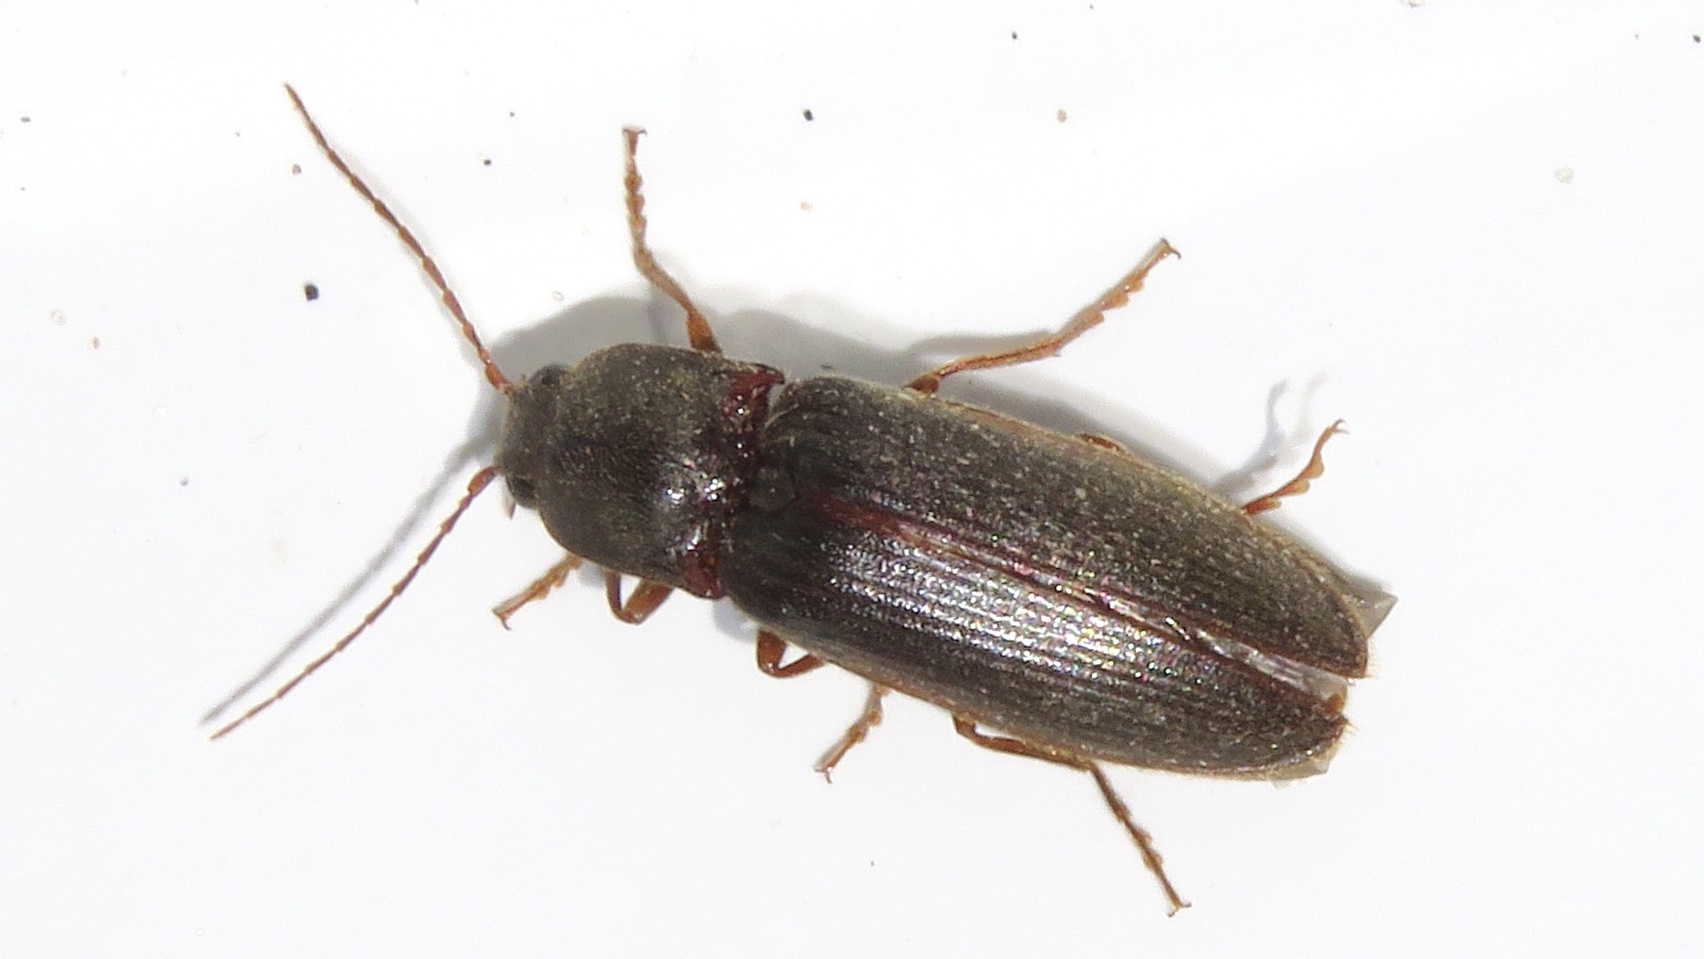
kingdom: Animalia
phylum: Arthropoda
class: Insecta
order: Coleoptera
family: Elateridae
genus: Hemicrepidius
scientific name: Hemicrepidius
